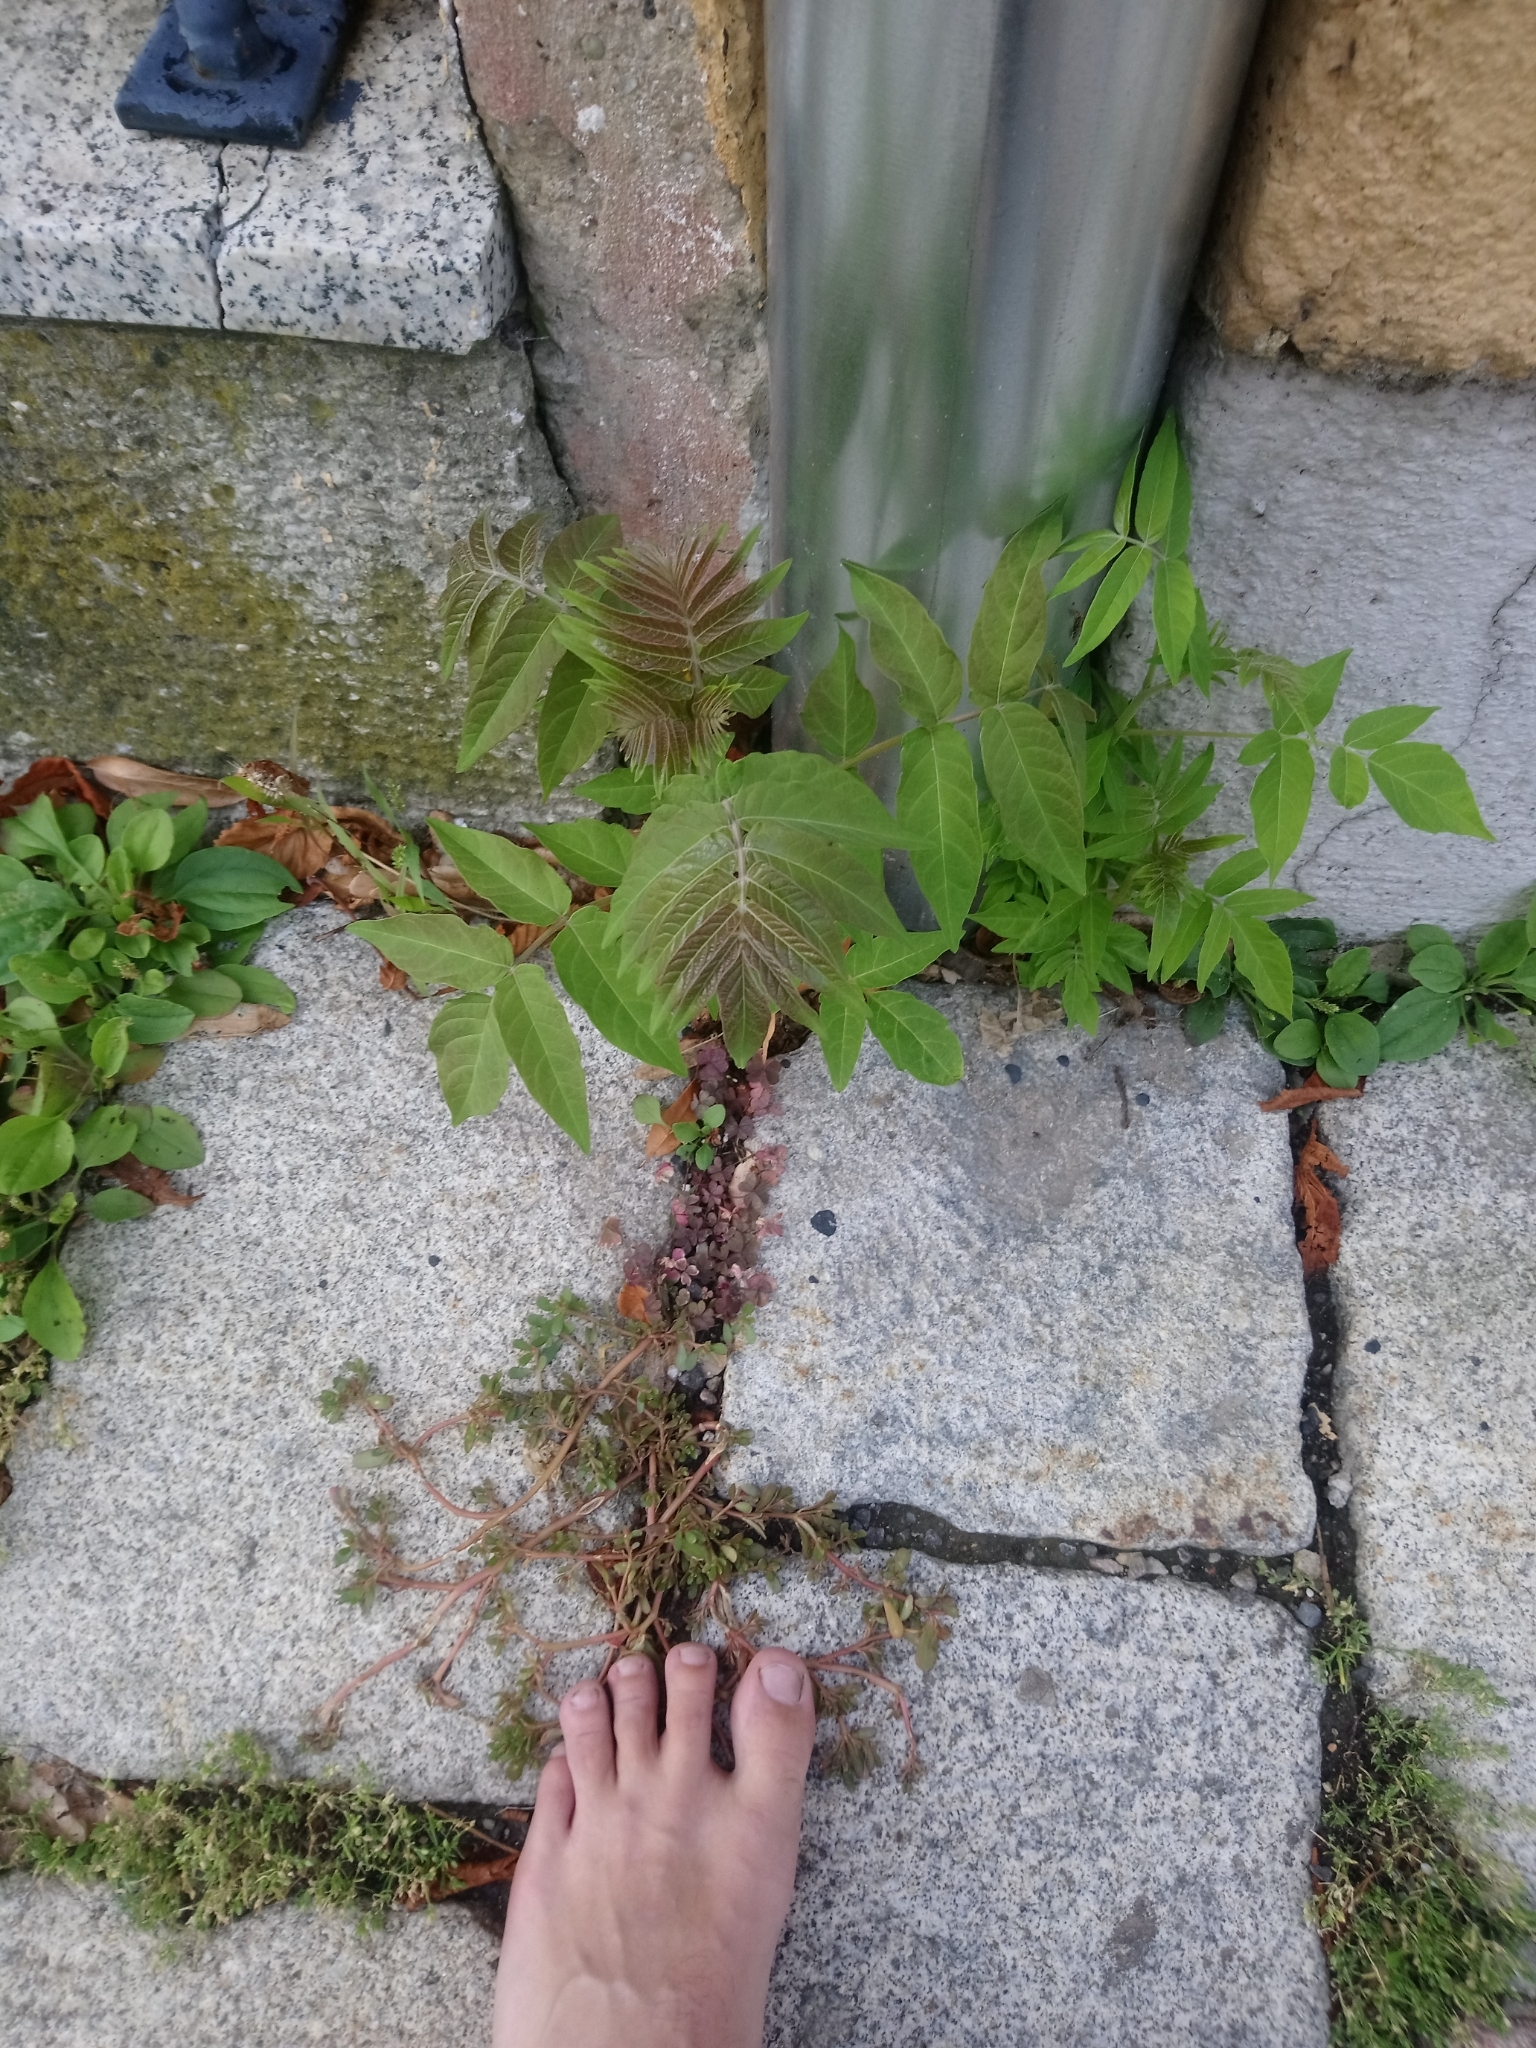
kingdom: Plantae
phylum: Tracheophyta
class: Magnoliopsida
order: Sapindales
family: Simaroubaceae
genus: Ailanthus
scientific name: Ailanthus altissima
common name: Tree-of-heaven
